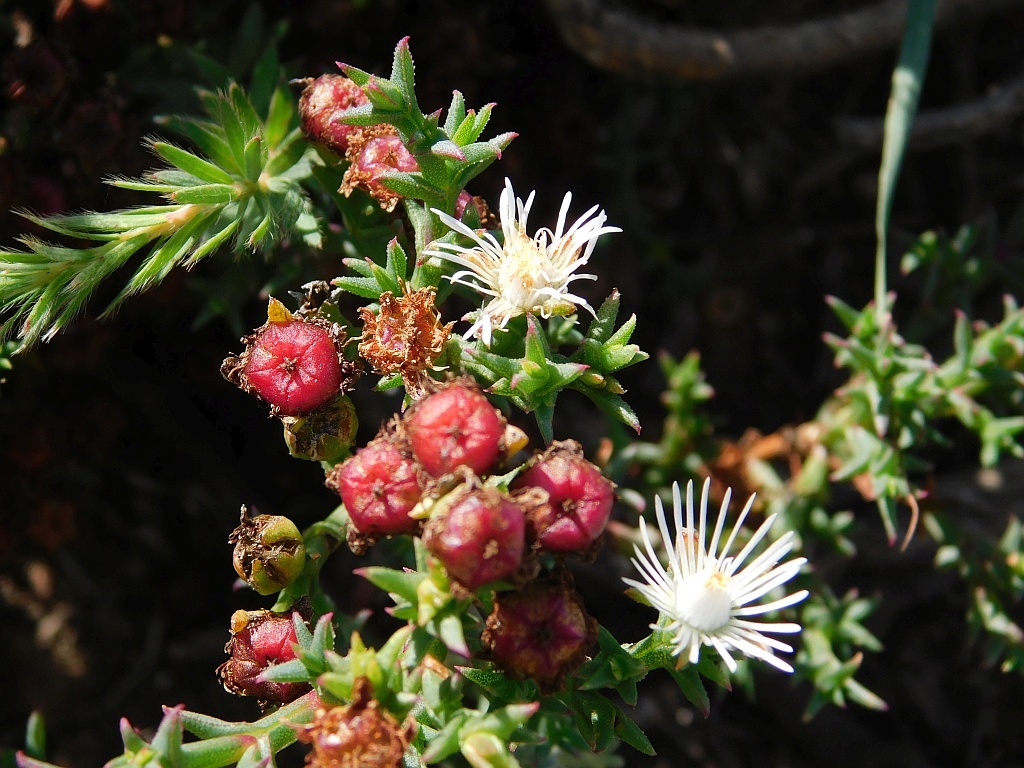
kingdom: Plantae
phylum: Tracheophyta
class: Magnoliopsida
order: Caryophyllales
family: Aizoaceae
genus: Ruschia
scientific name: Ruschia tenella
